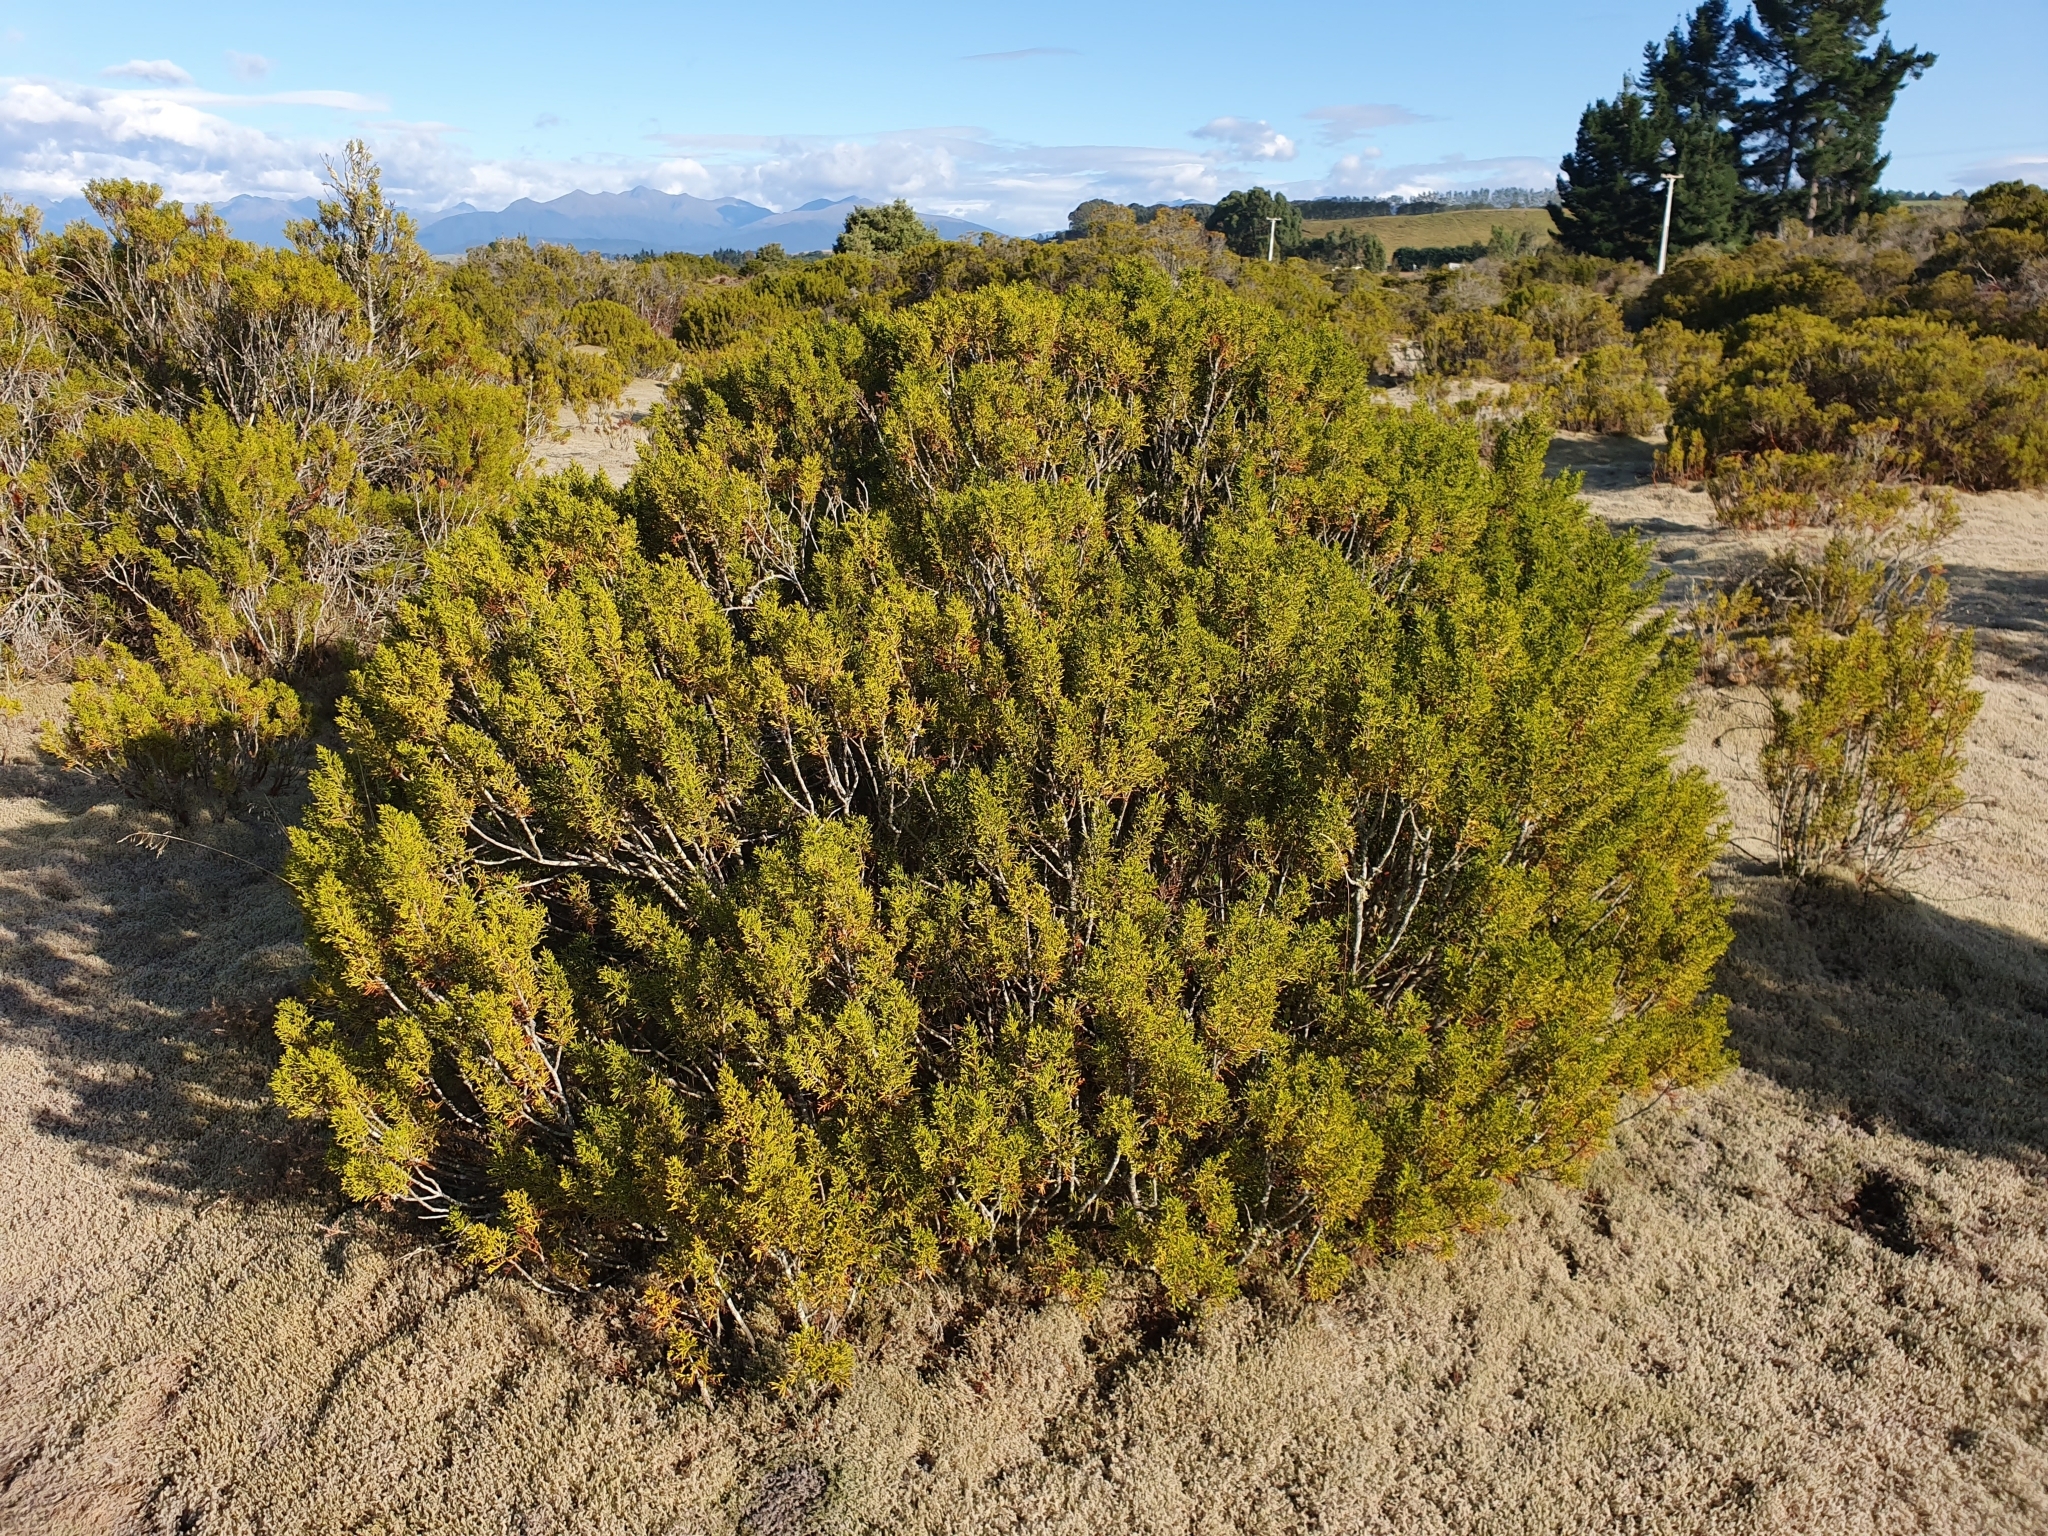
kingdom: Plantae
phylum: Tracheophyta
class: Pinopsida
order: Pinales
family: Podocarpaceae
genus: Halocarpus
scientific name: Halocarpus bidwillii
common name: Bog pine
